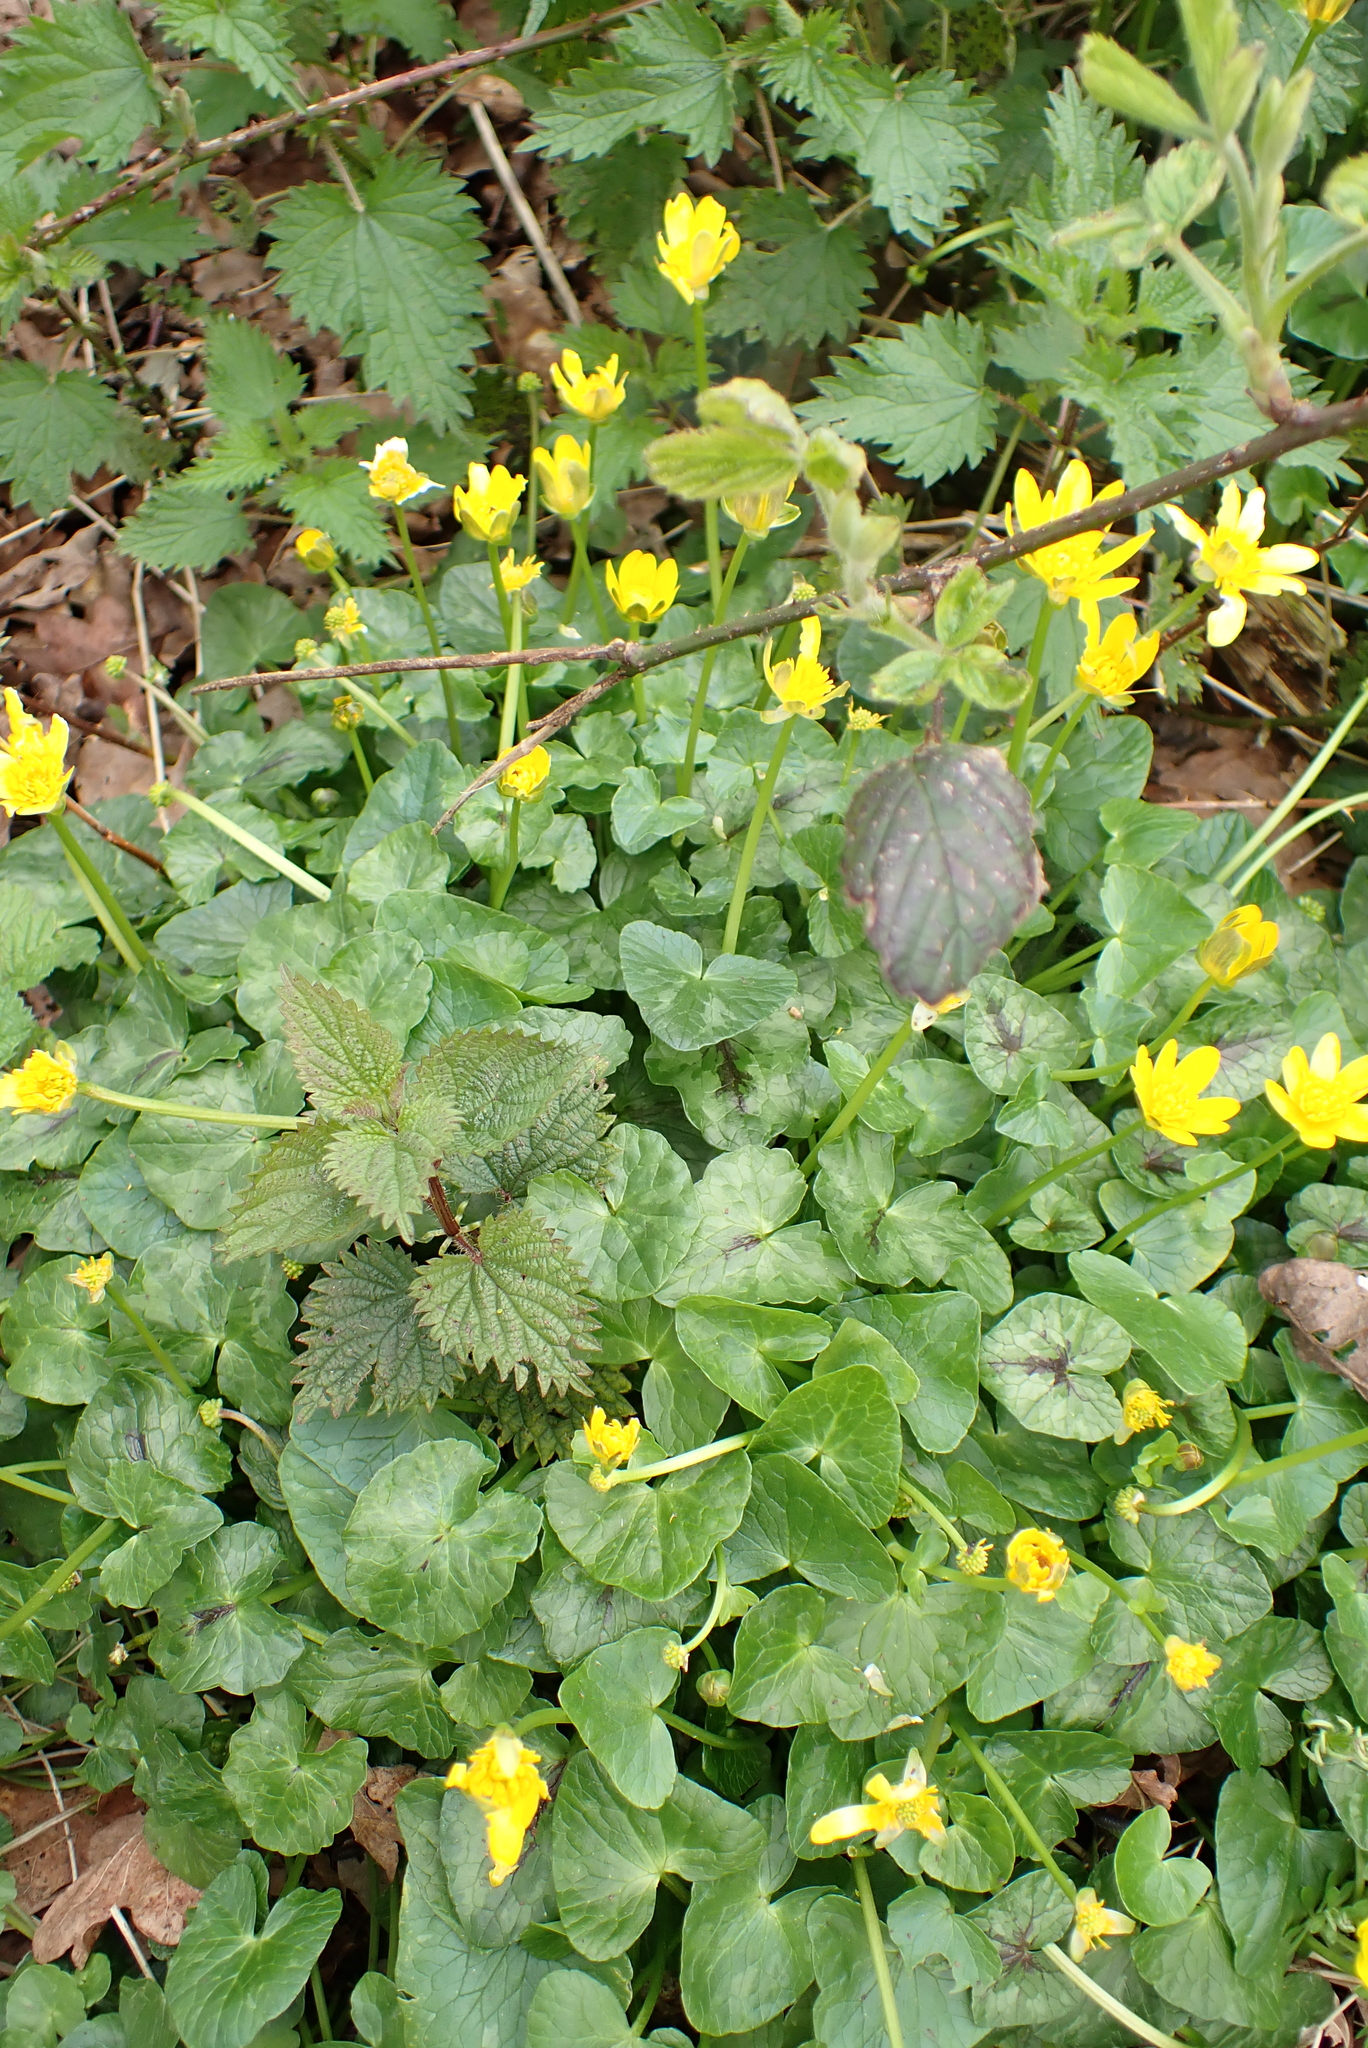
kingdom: Plantae
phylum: Tracheophyta
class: Magnoliopsida
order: Ranunculales
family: Ranunculaceae
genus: Ficaria
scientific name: Ficaria verna
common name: Lesser celandine
